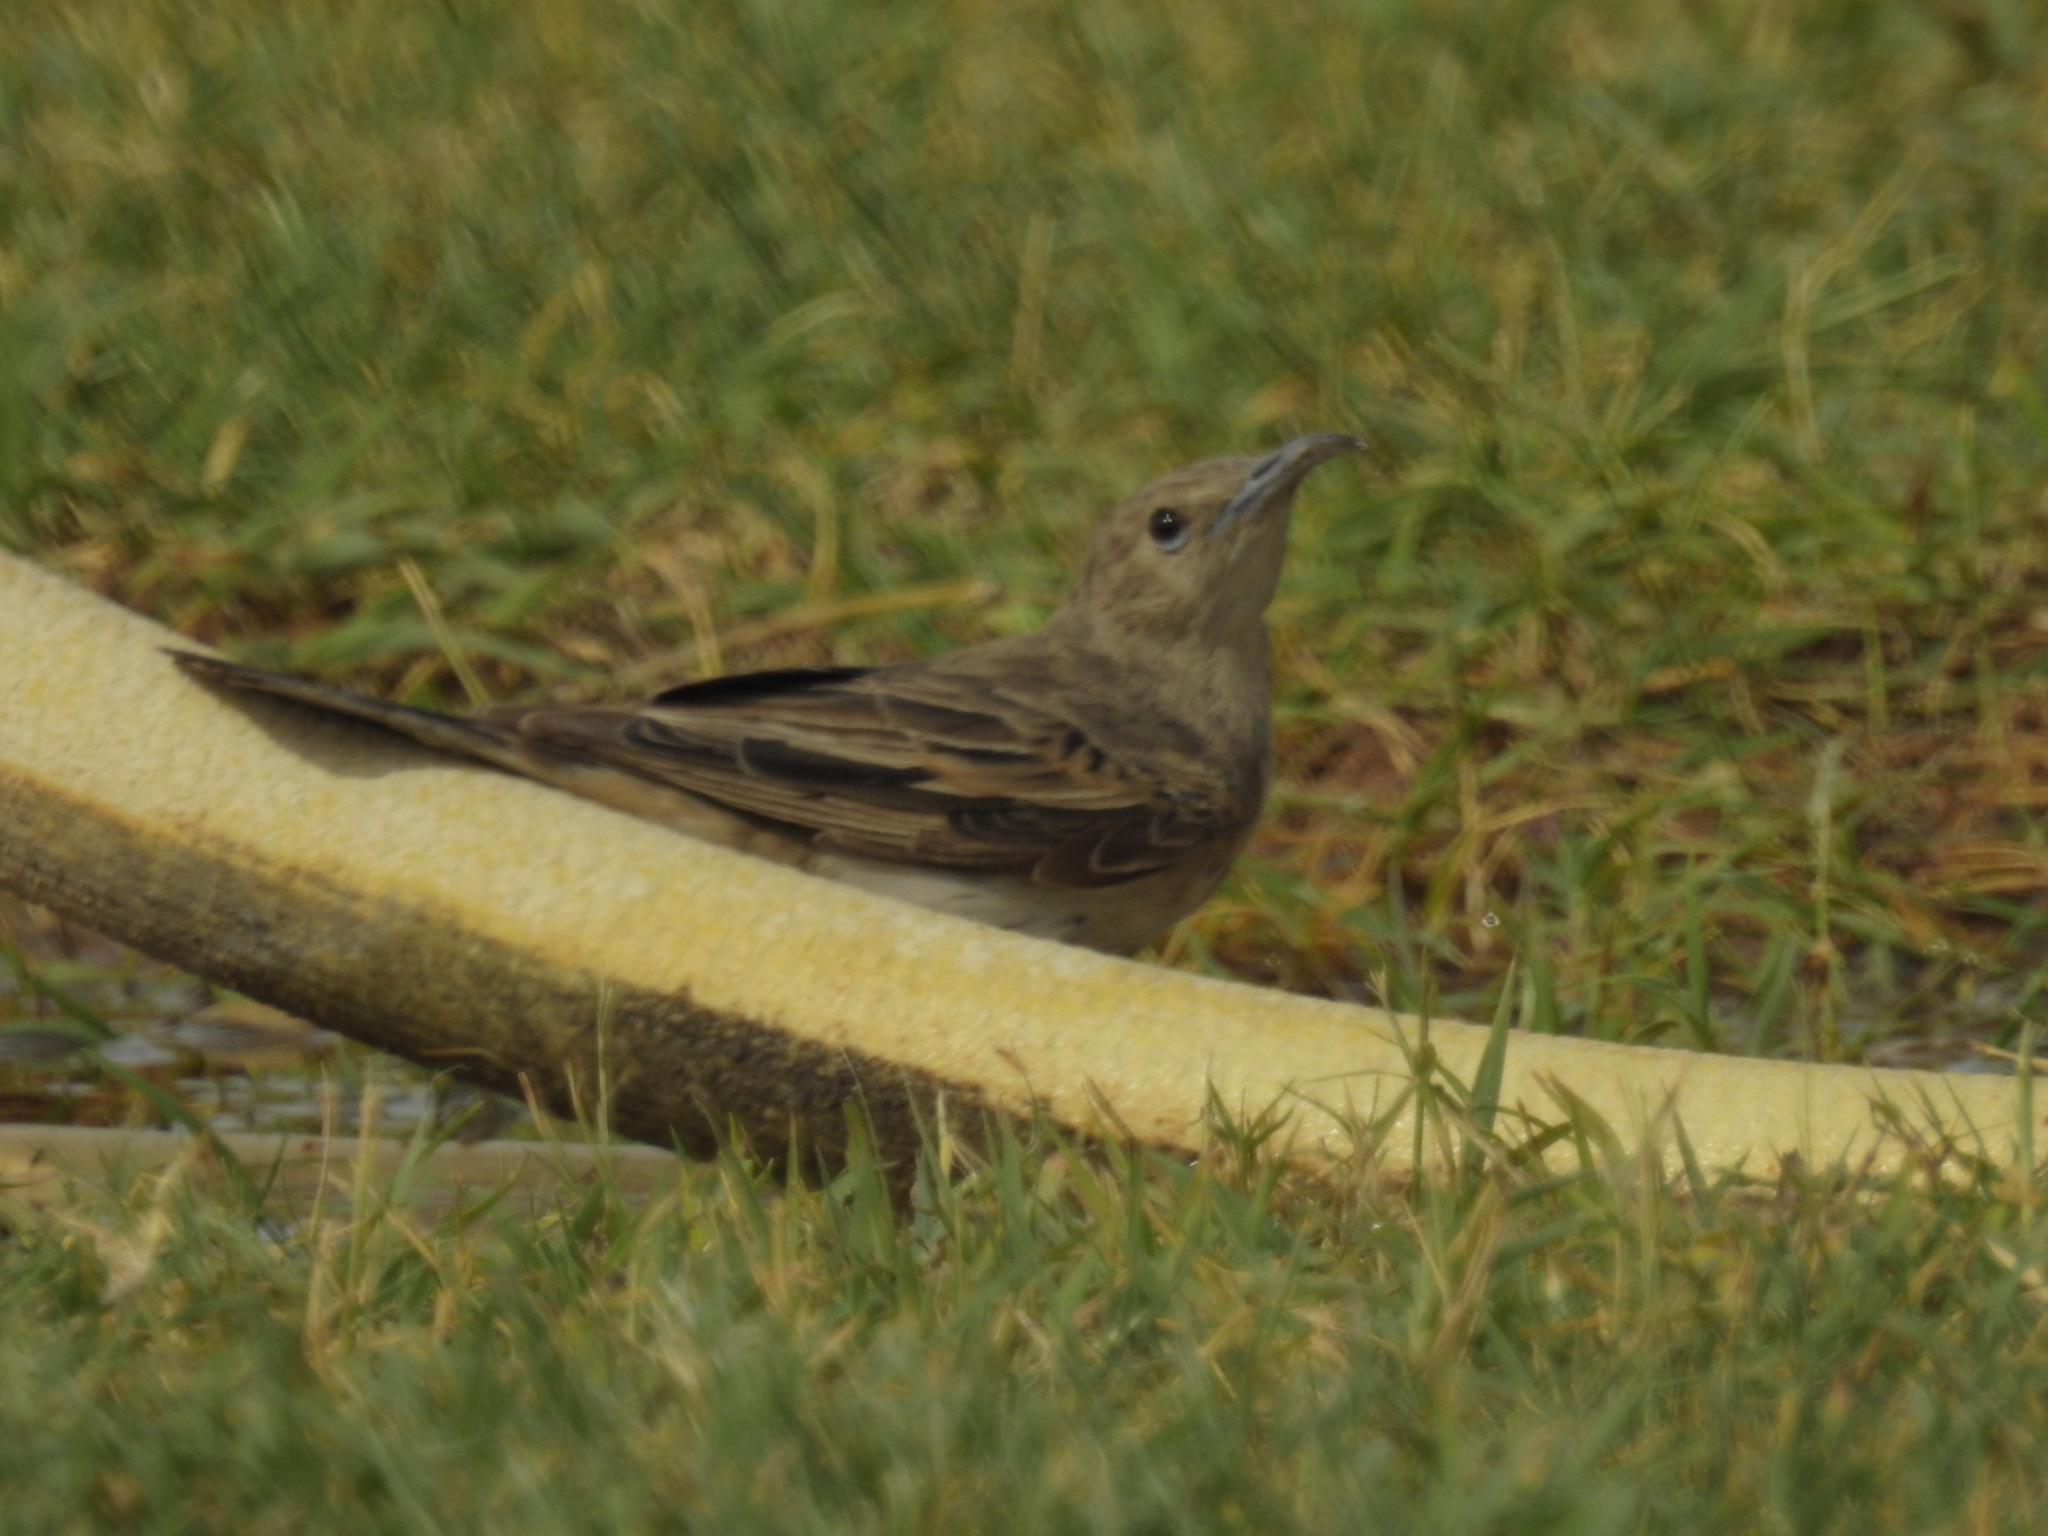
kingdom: Animalia
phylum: Chordata
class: Aves
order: Passeriformes
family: Meliphagidae
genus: Certhionyx
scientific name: Certhionyx variegatus
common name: Pied honeyeater
